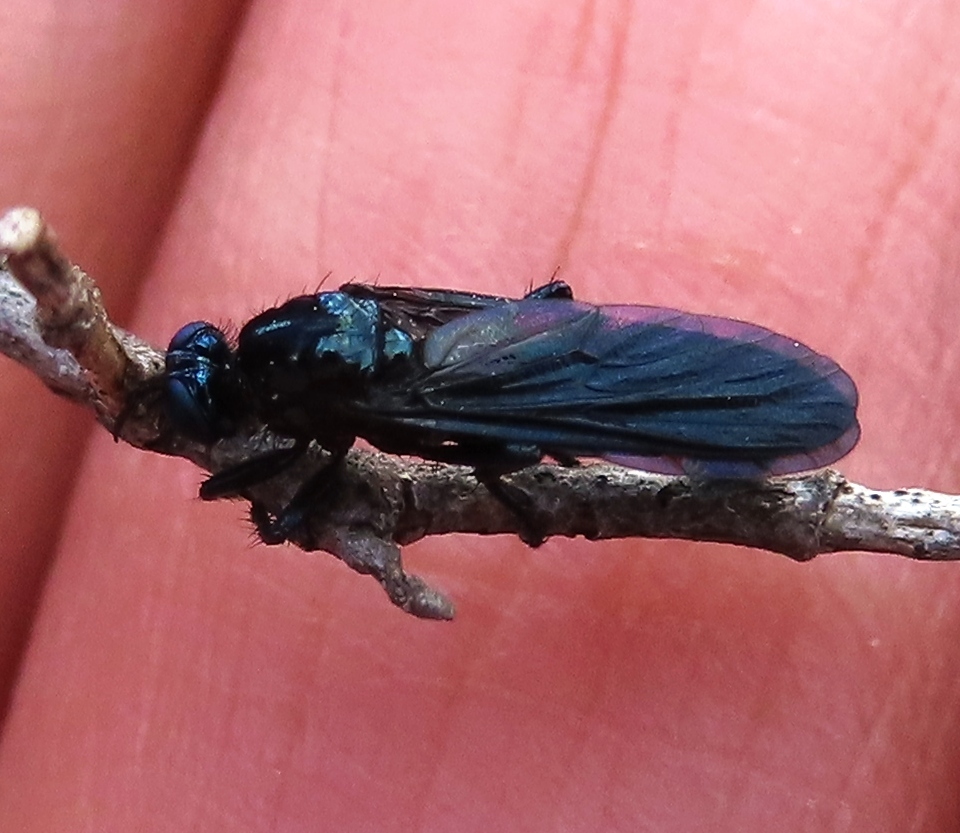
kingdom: Animalia
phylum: Arthropoda
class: Insecta
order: Diptera
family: Asilidae
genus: Teratopomyia
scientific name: Teratopomyia cyanea
